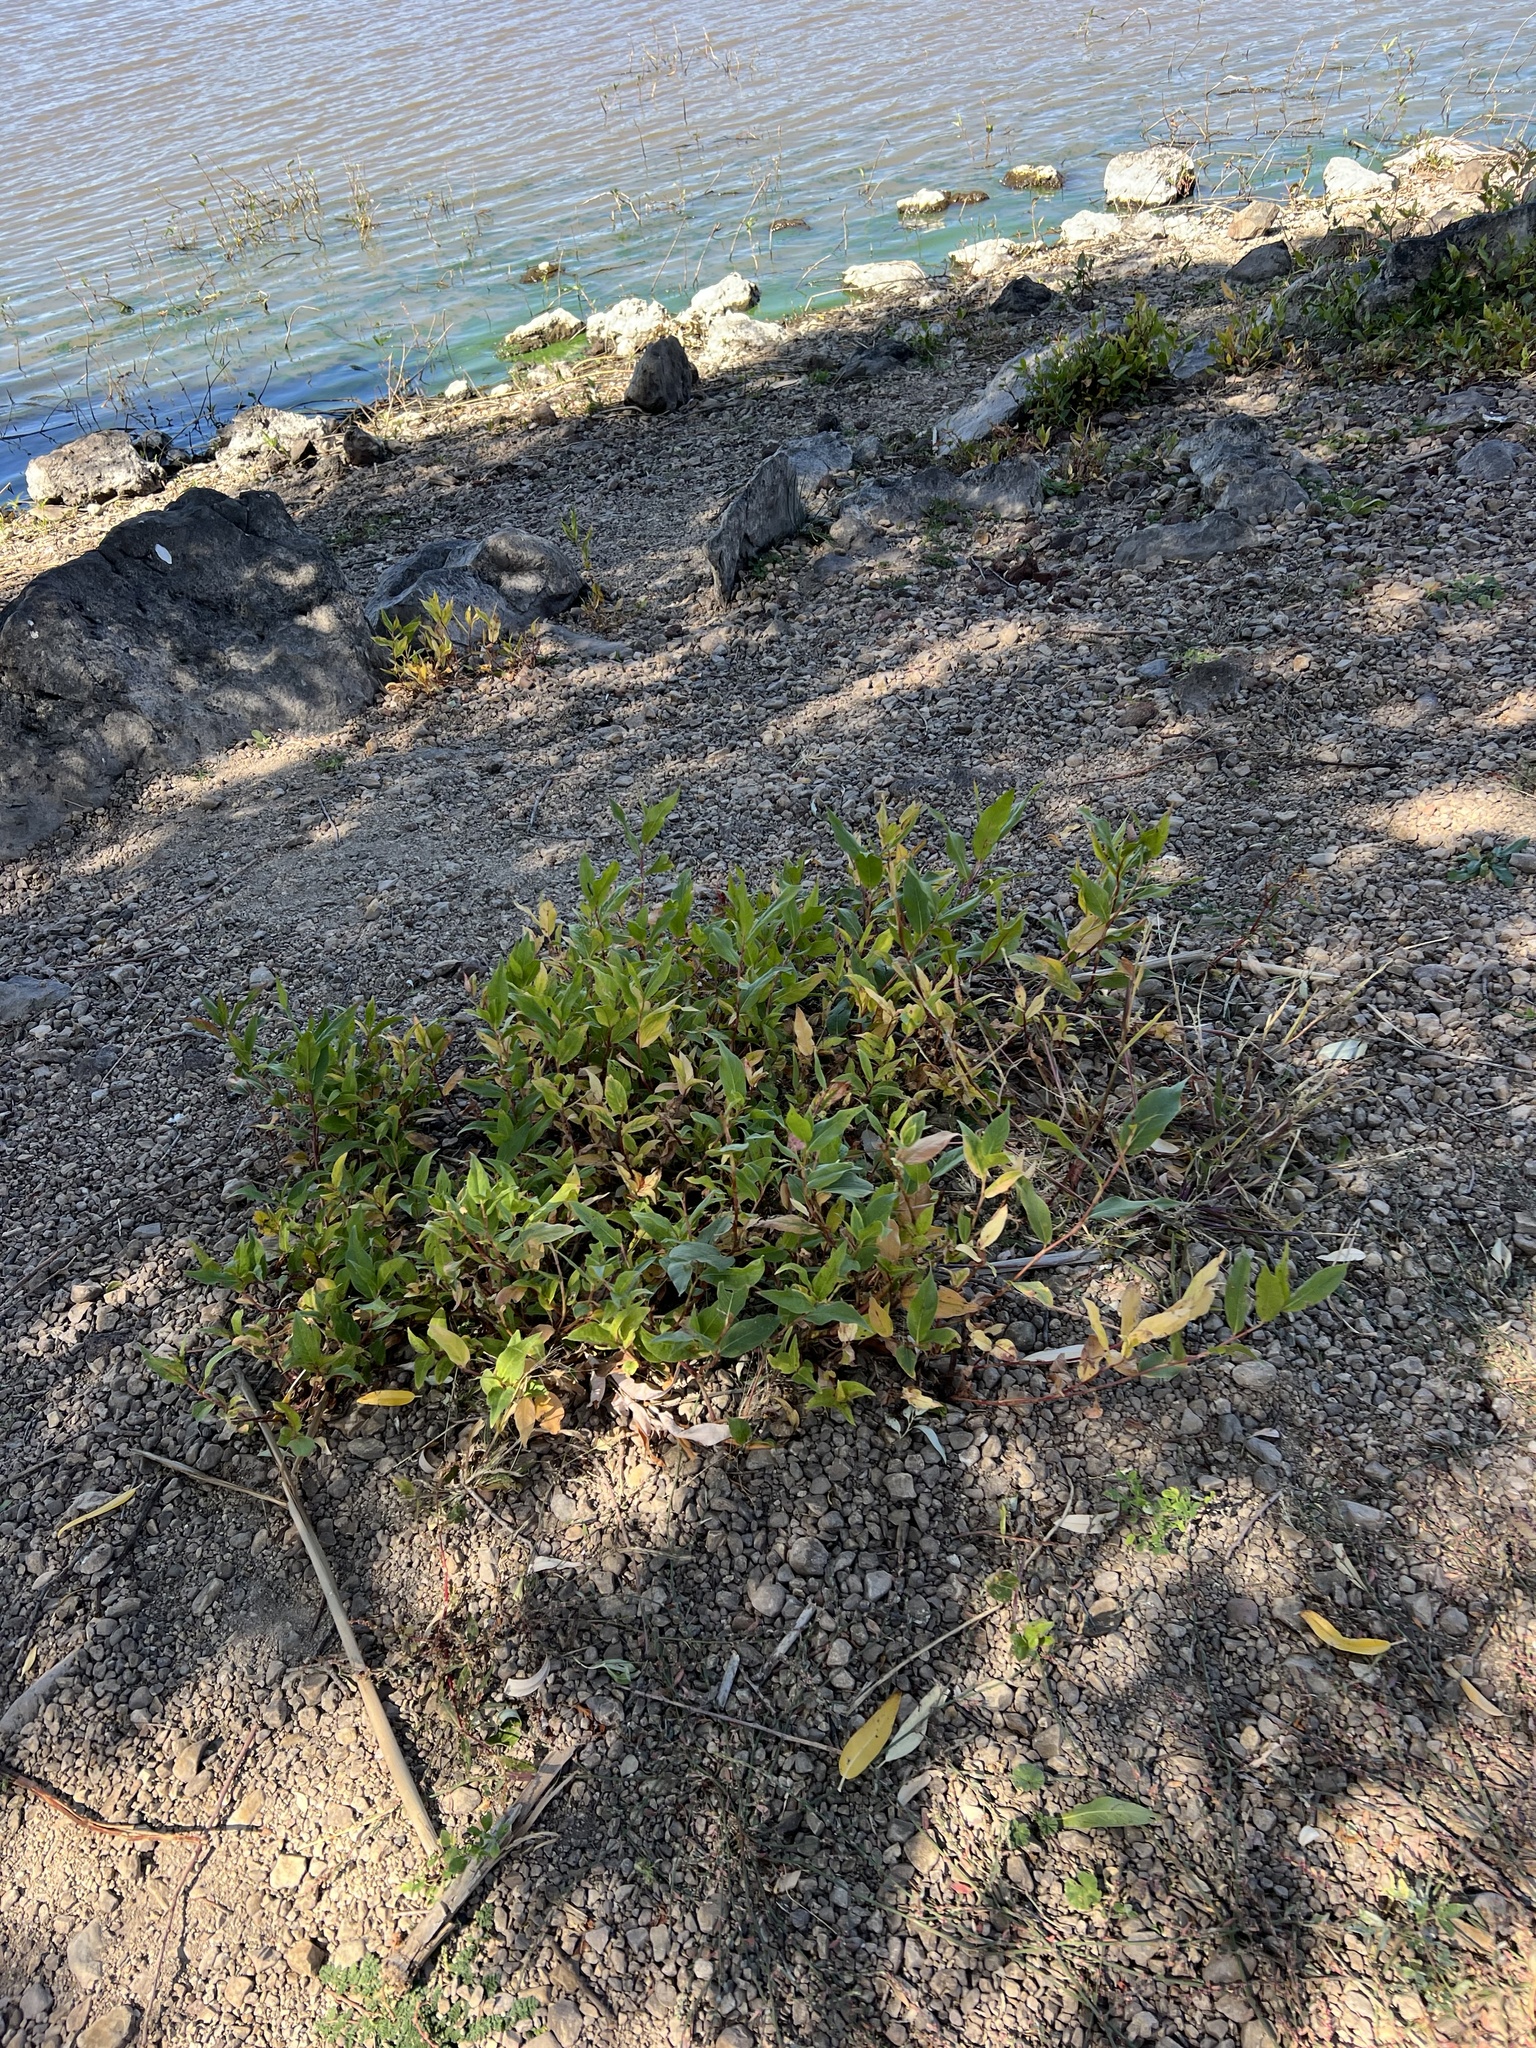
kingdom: Plantae
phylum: Tracheophyta
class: Magnoliopsida
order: Caryophyllales
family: Polygonaceae
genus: Persicaria
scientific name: Persicaria amphibia
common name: Amphibious bistort
